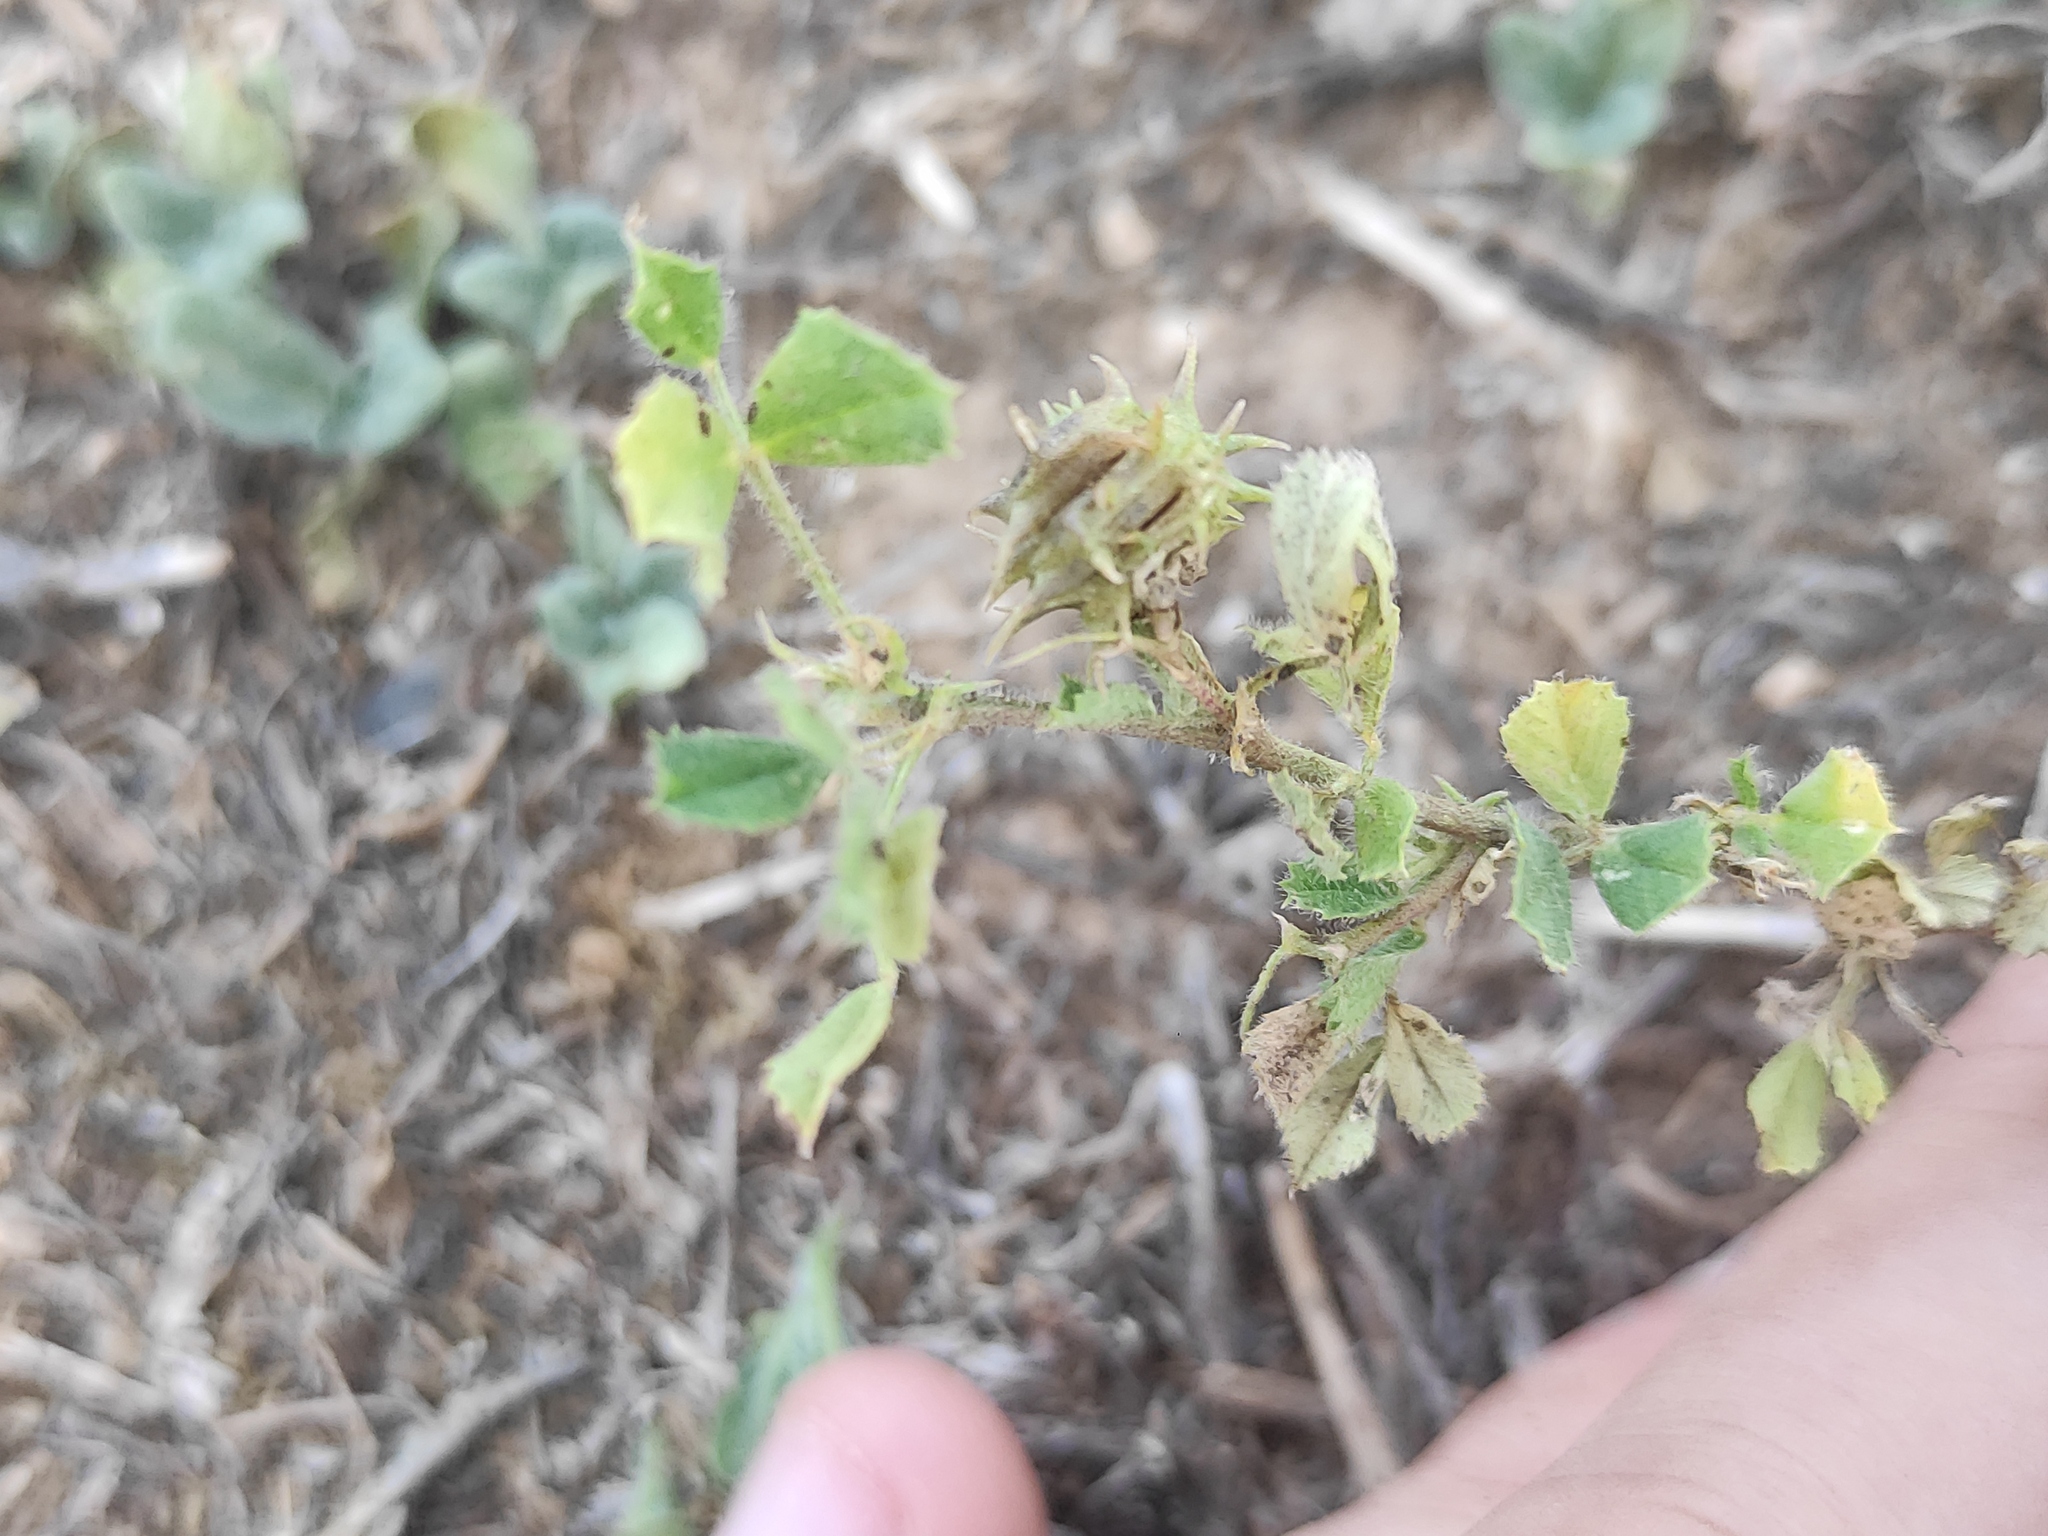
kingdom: Plantae
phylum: Tracheophyta
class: Magnoliopsida
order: Fabales
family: Fabaceae
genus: Medicago
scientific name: Medicago truncatula
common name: Strong-spined medick
